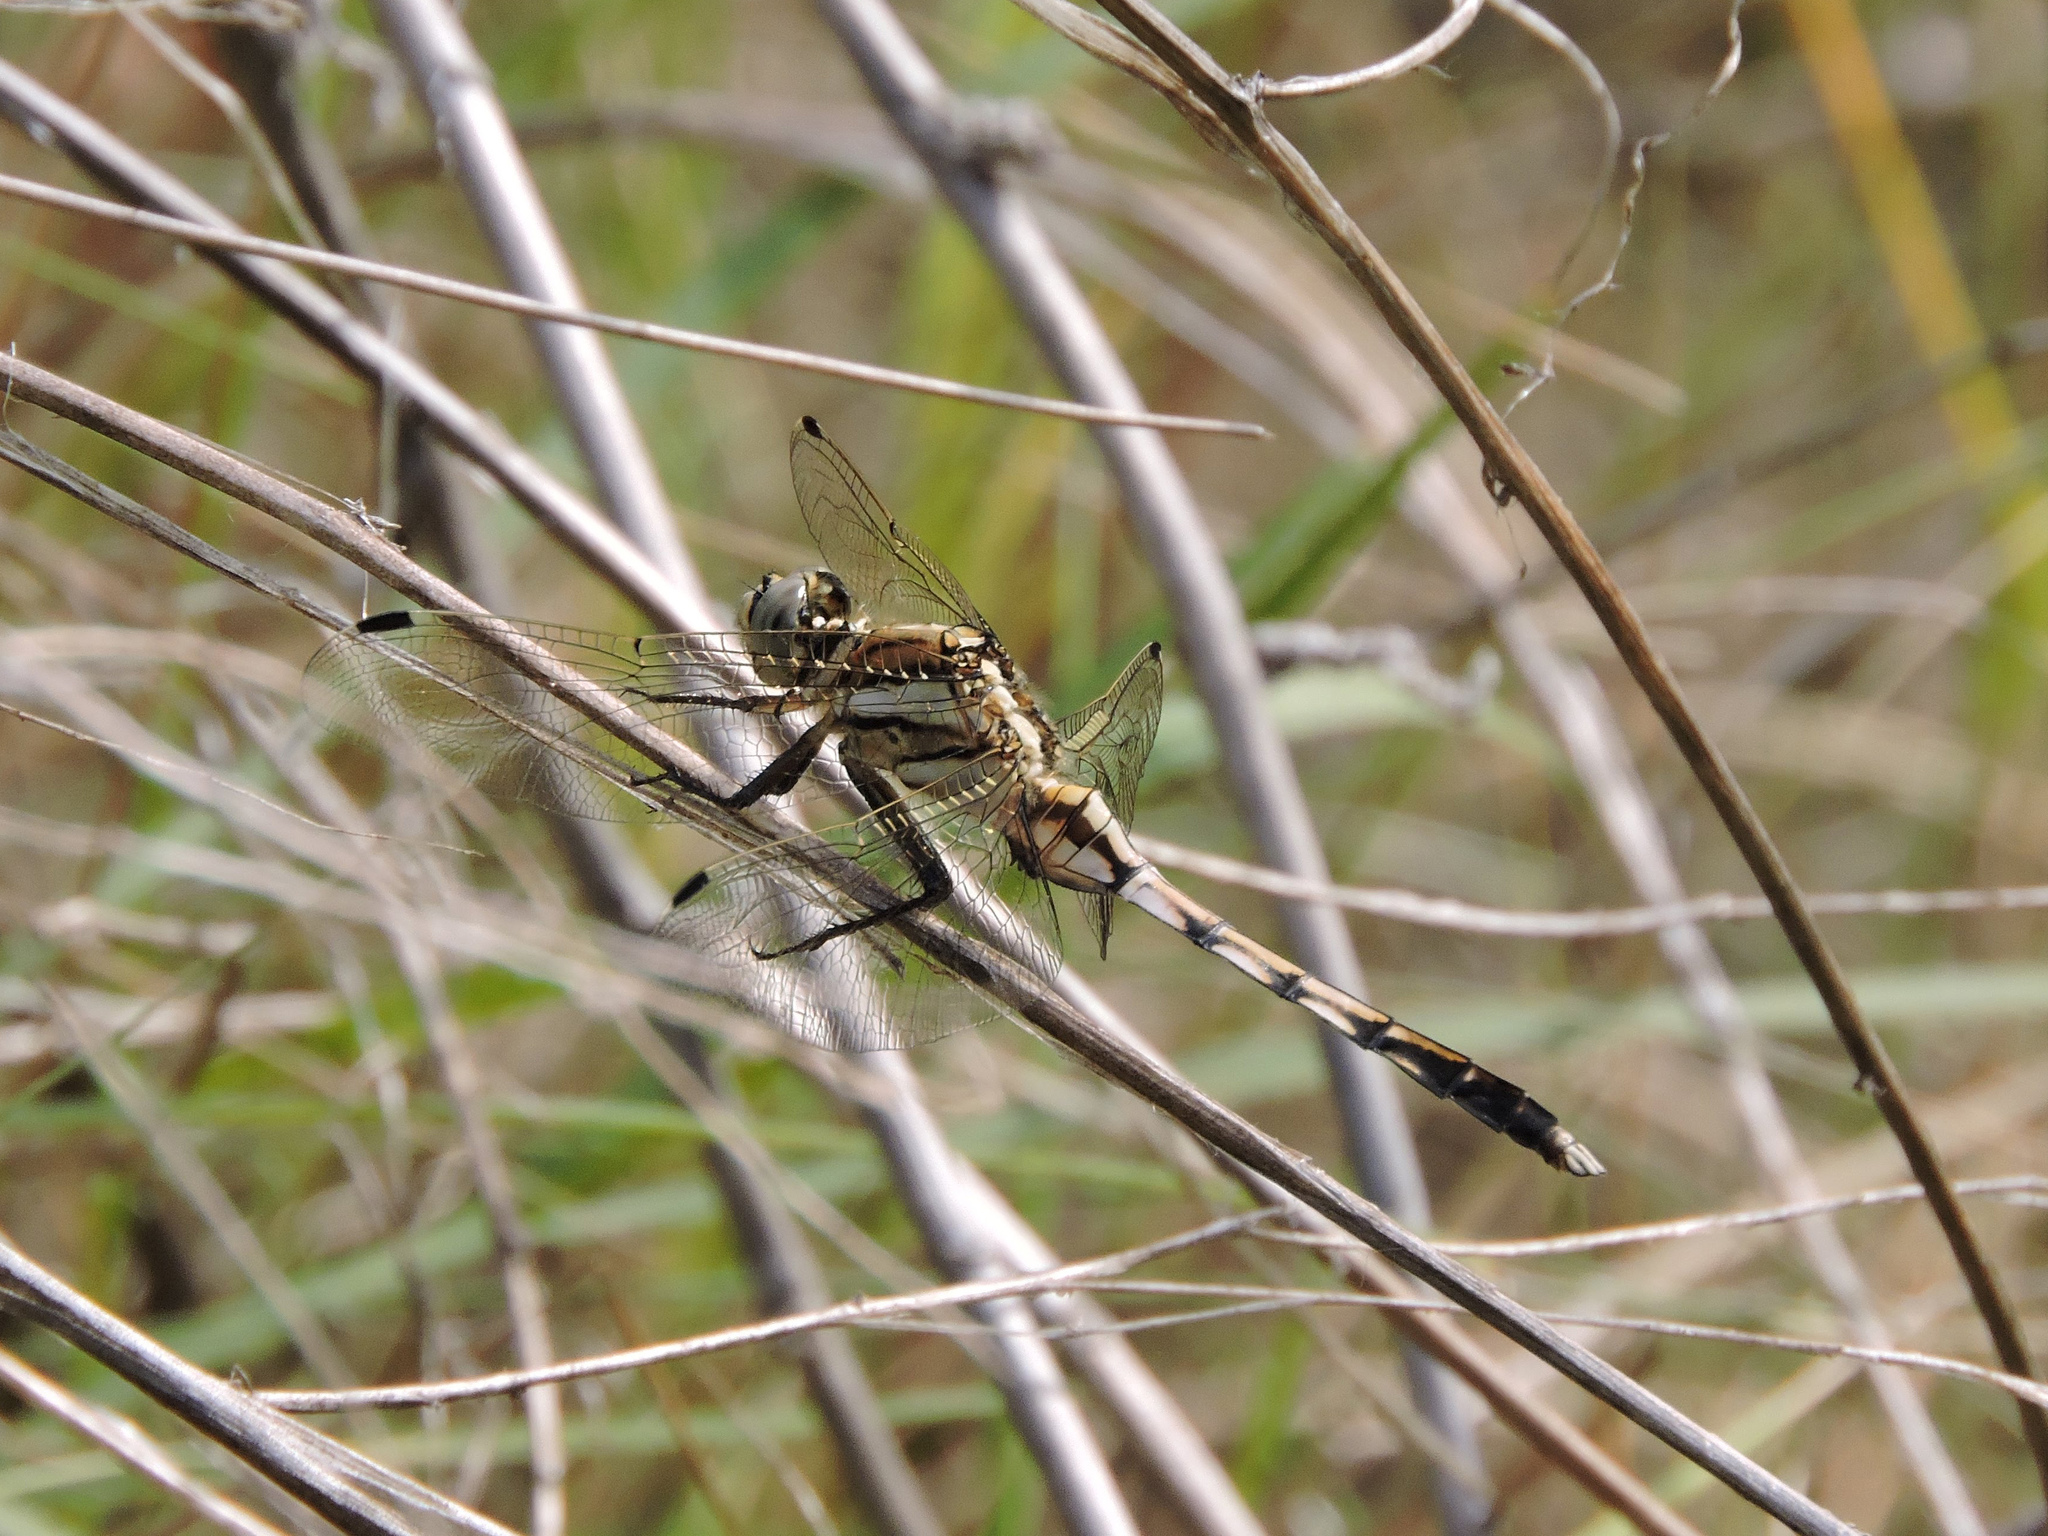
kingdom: Animalia
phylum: Arthropoda
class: Insecta
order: Odonata
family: Libellulidae
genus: Orthetrum
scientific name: Orthetrum albistylum
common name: White-tailed skimmer
